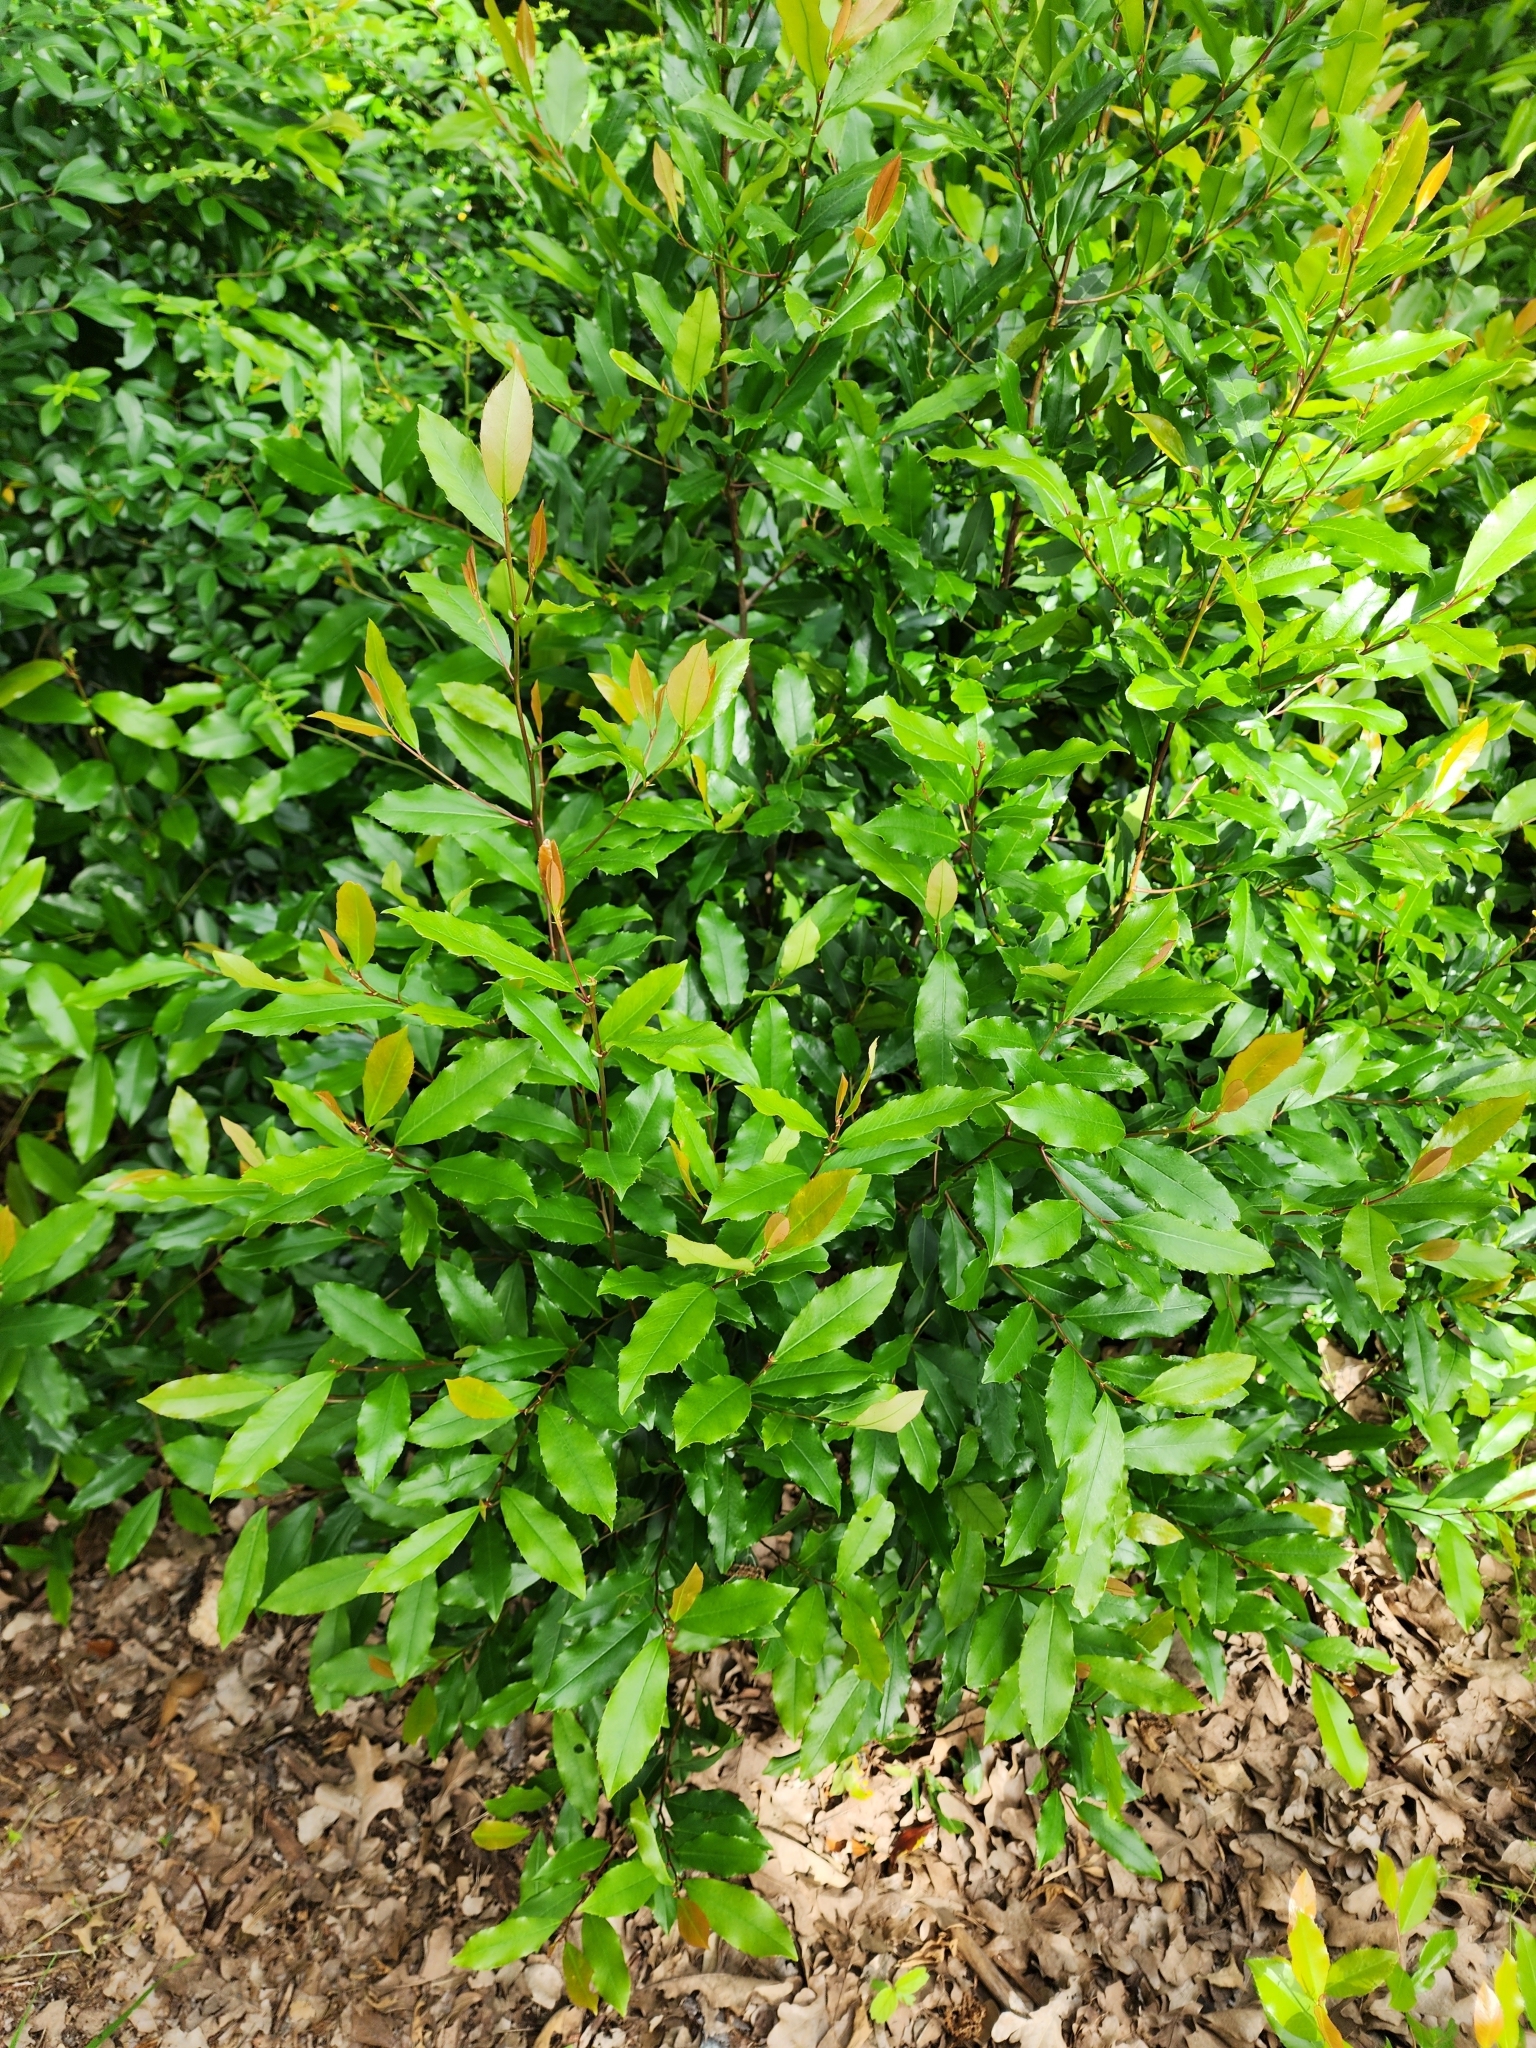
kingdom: Plantae
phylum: Tracheophyta
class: Magnoliopsida
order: Rosales
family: Rosaceae
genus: Photinia
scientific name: Photinia serratifolia
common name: Taiwanese photinia
